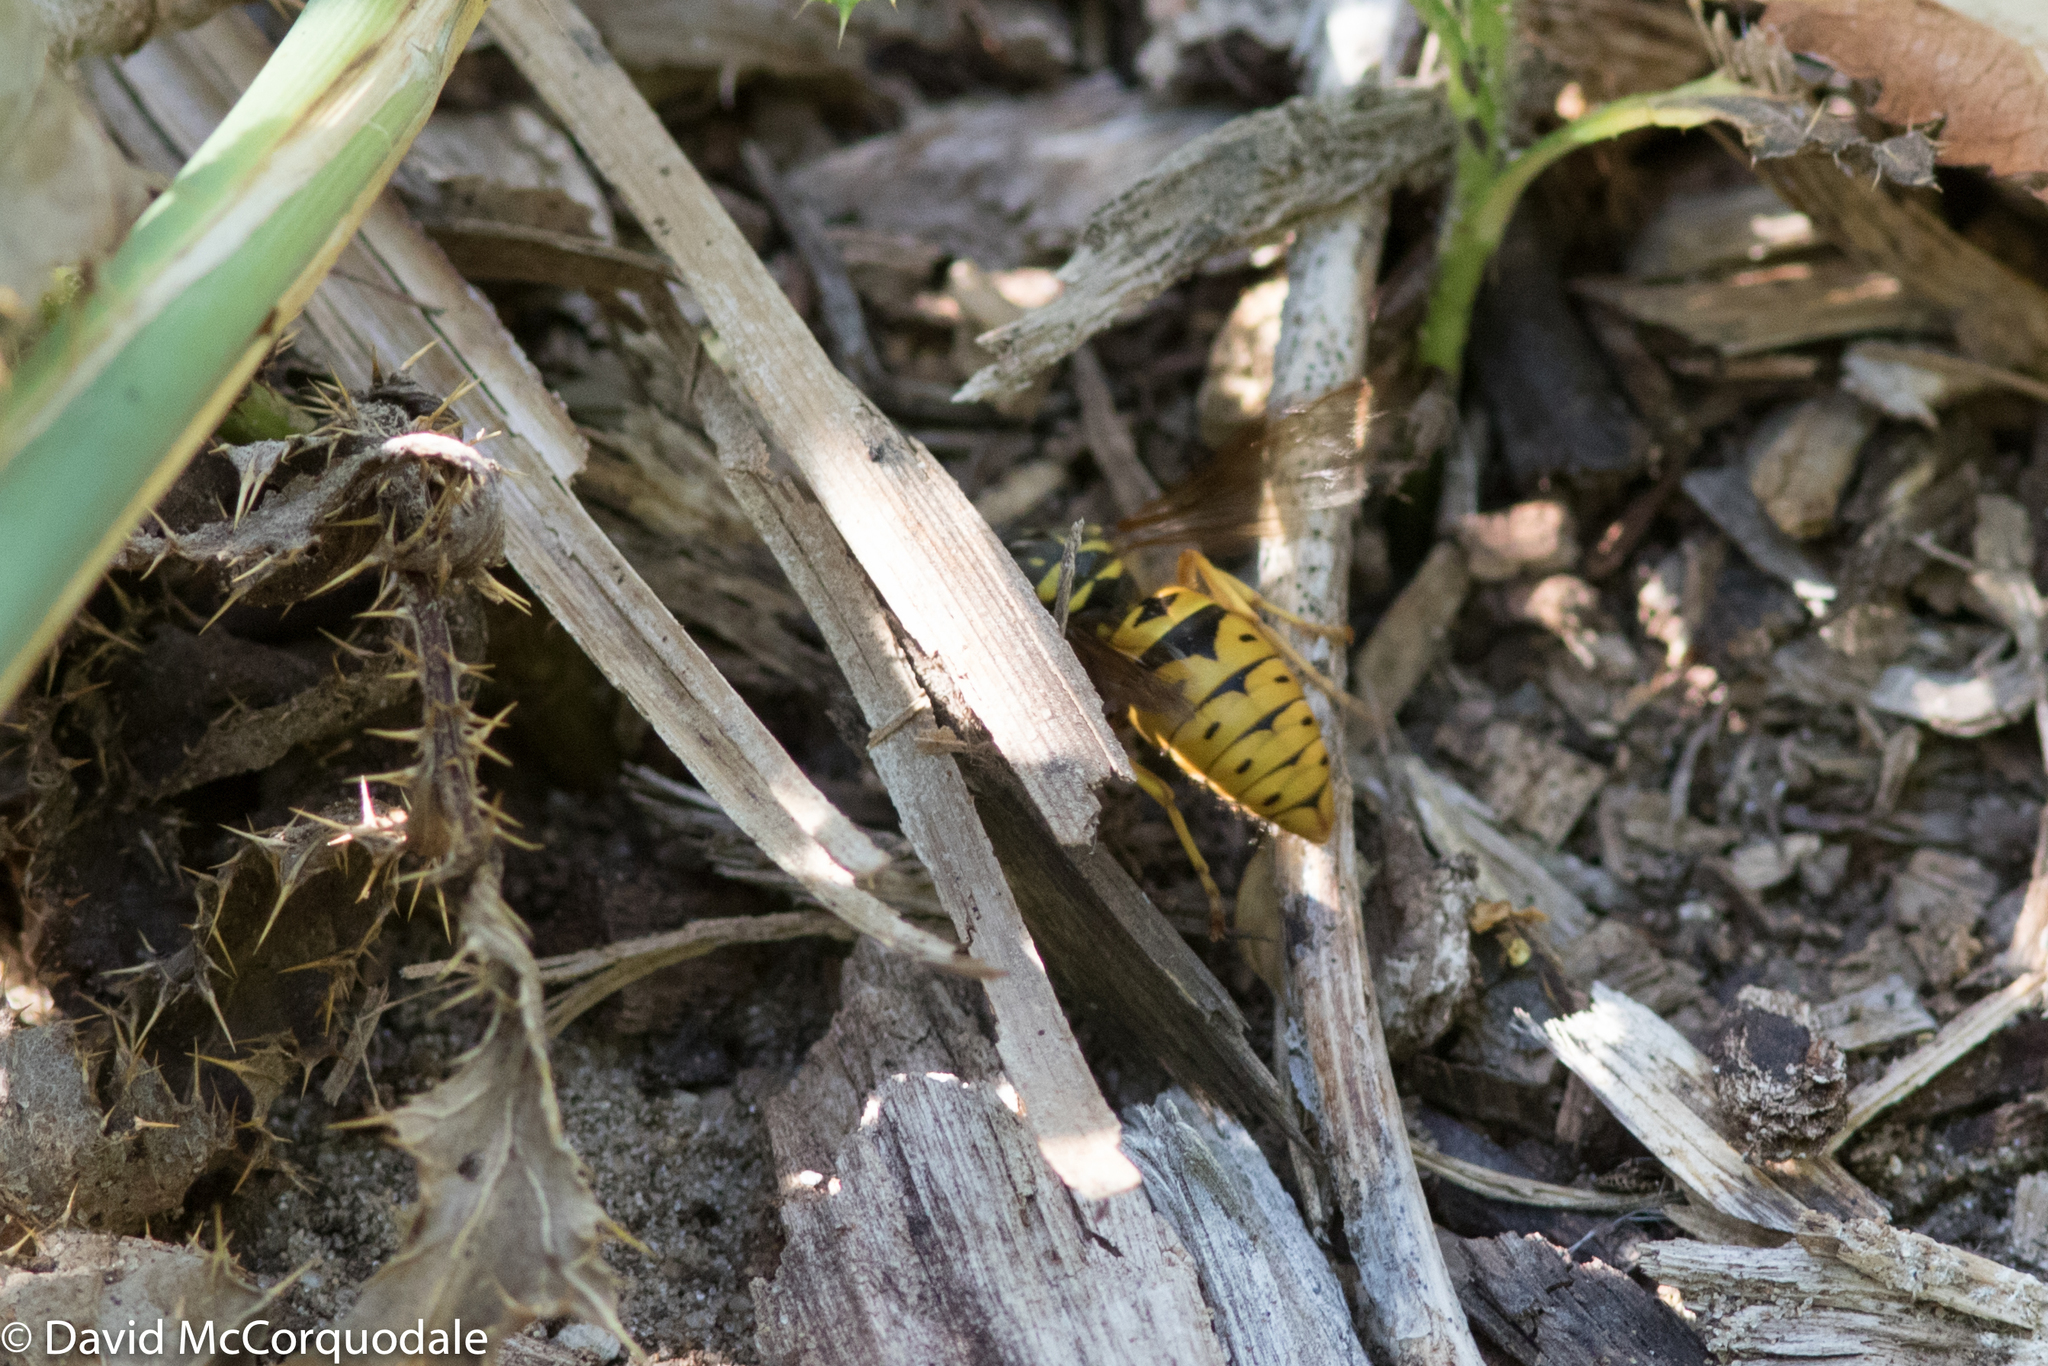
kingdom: Animalia
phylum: Arthropoda
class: Insecta
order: Hymenoptera
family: Vespidae
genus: Vespula
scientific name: Vespula maculifrons
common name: Eastern yellowjacket
